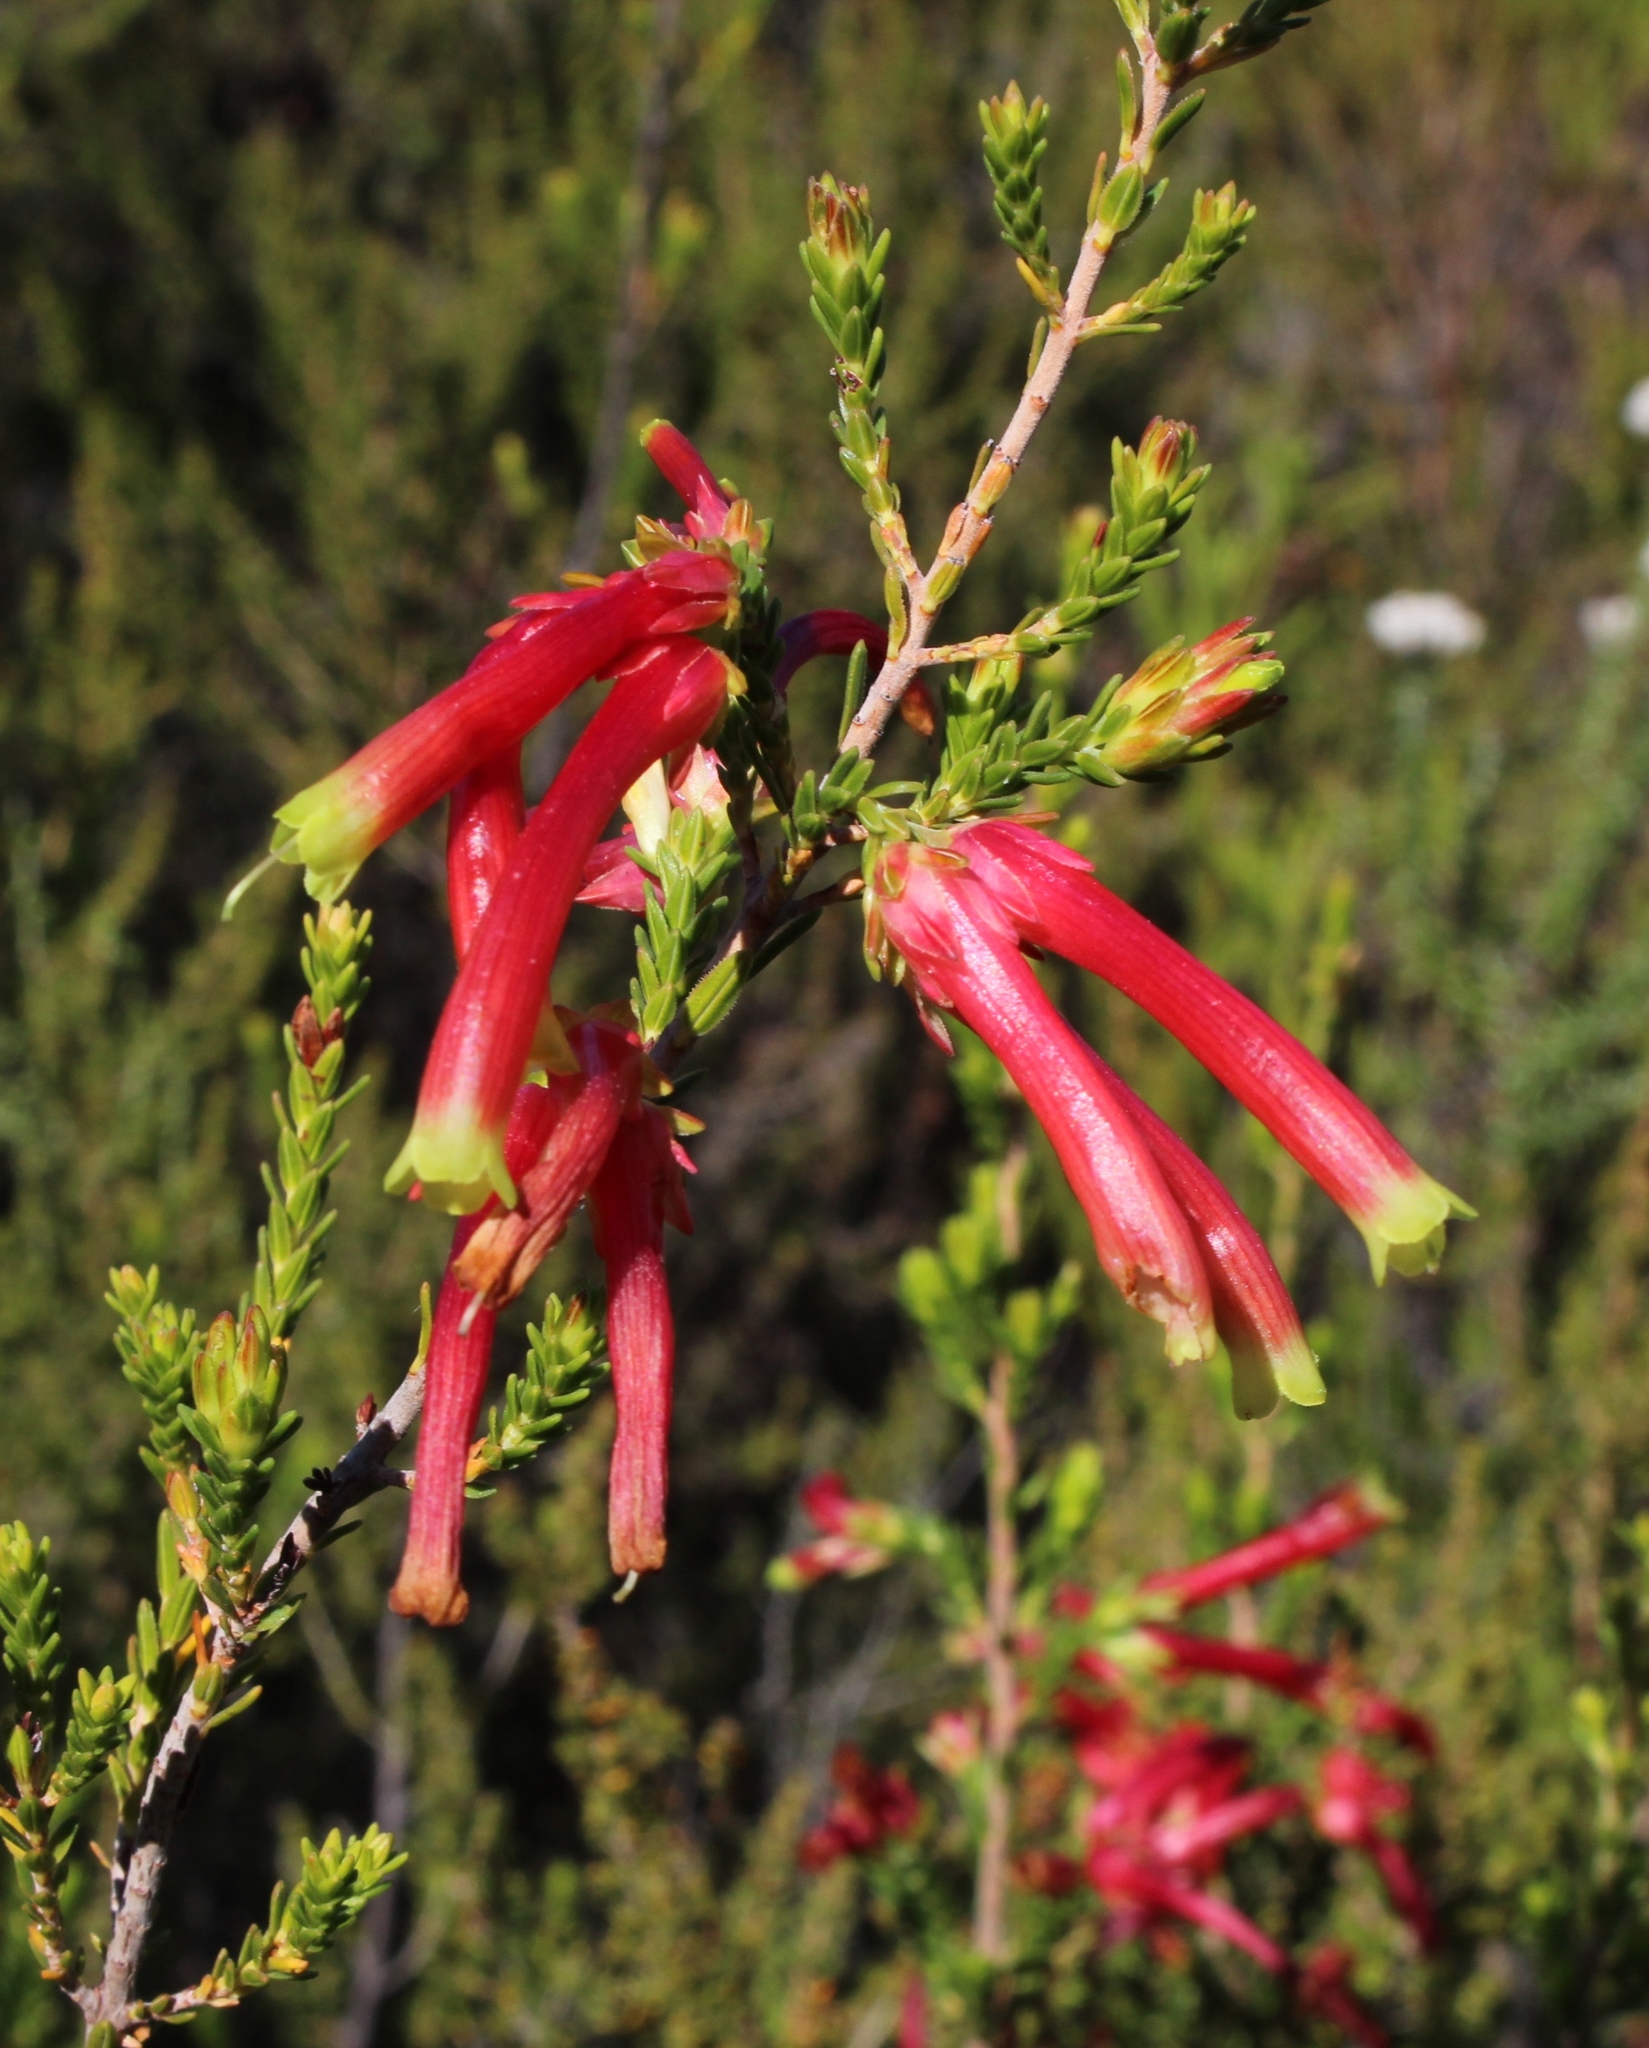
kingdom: Plantae
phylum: Tracheophyta
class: Magnoliopsida
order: Ericales
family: Ericaceae
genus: Erica
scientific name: Erica versicolor
